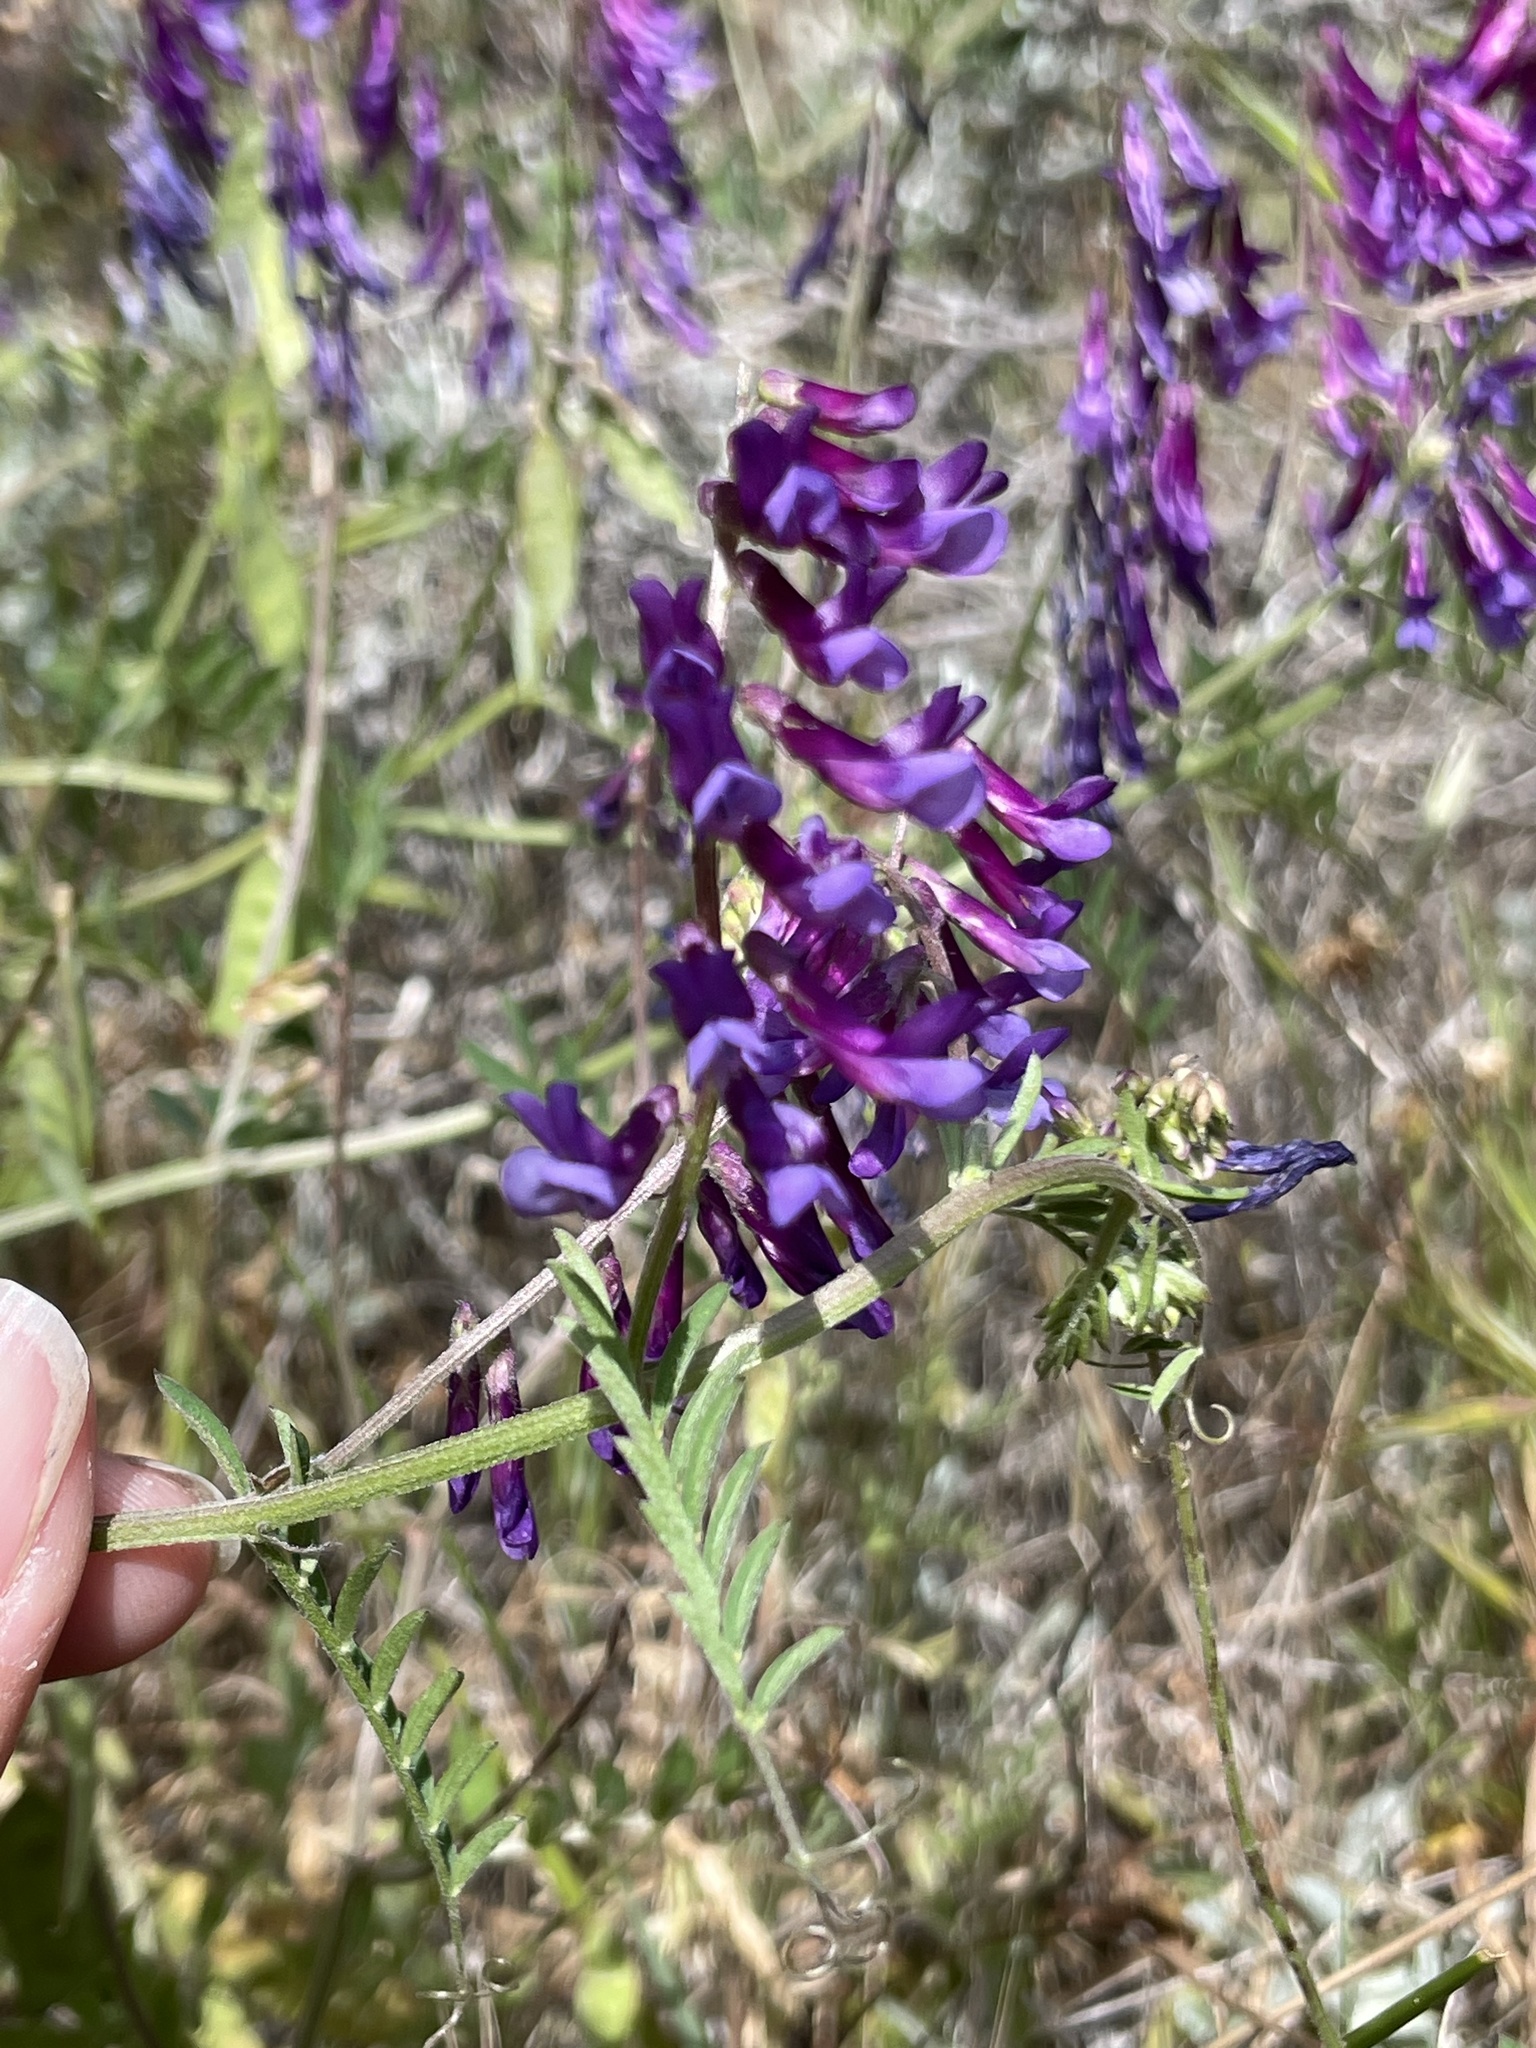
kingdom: Plantae
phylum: Tracheophyta
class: Magnoliopsida
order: Fabales
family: Fabaceae
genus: Vicia
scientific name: Vicia villosa
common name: Fodder vetch
